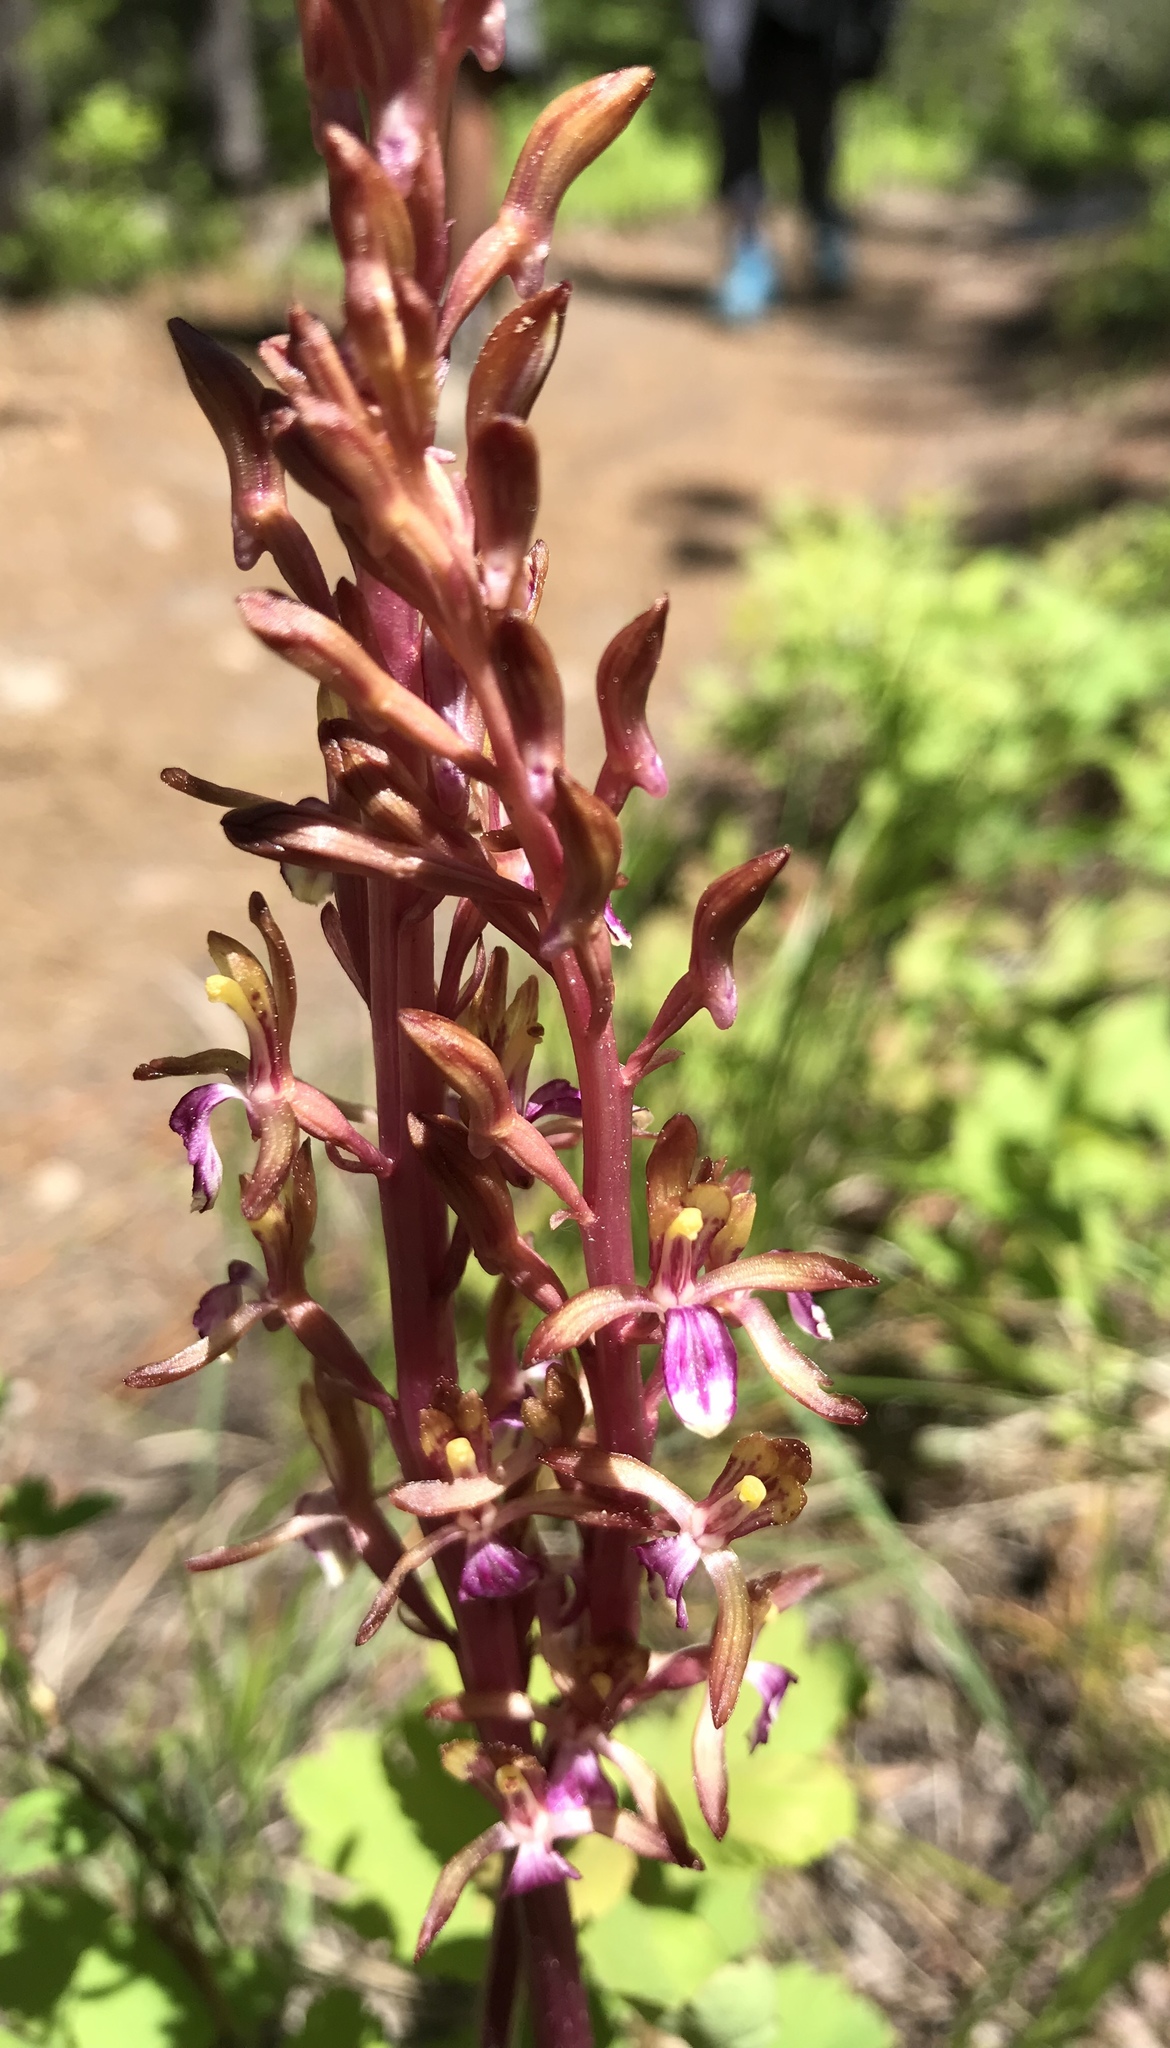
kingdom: Plantae
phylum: Tracheophyta
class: Liliopsida
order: Asparagales
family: Orchidaceae
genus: Corallorhiza
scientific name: Corallorhiza mertensiana
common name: Pacific coralroot
